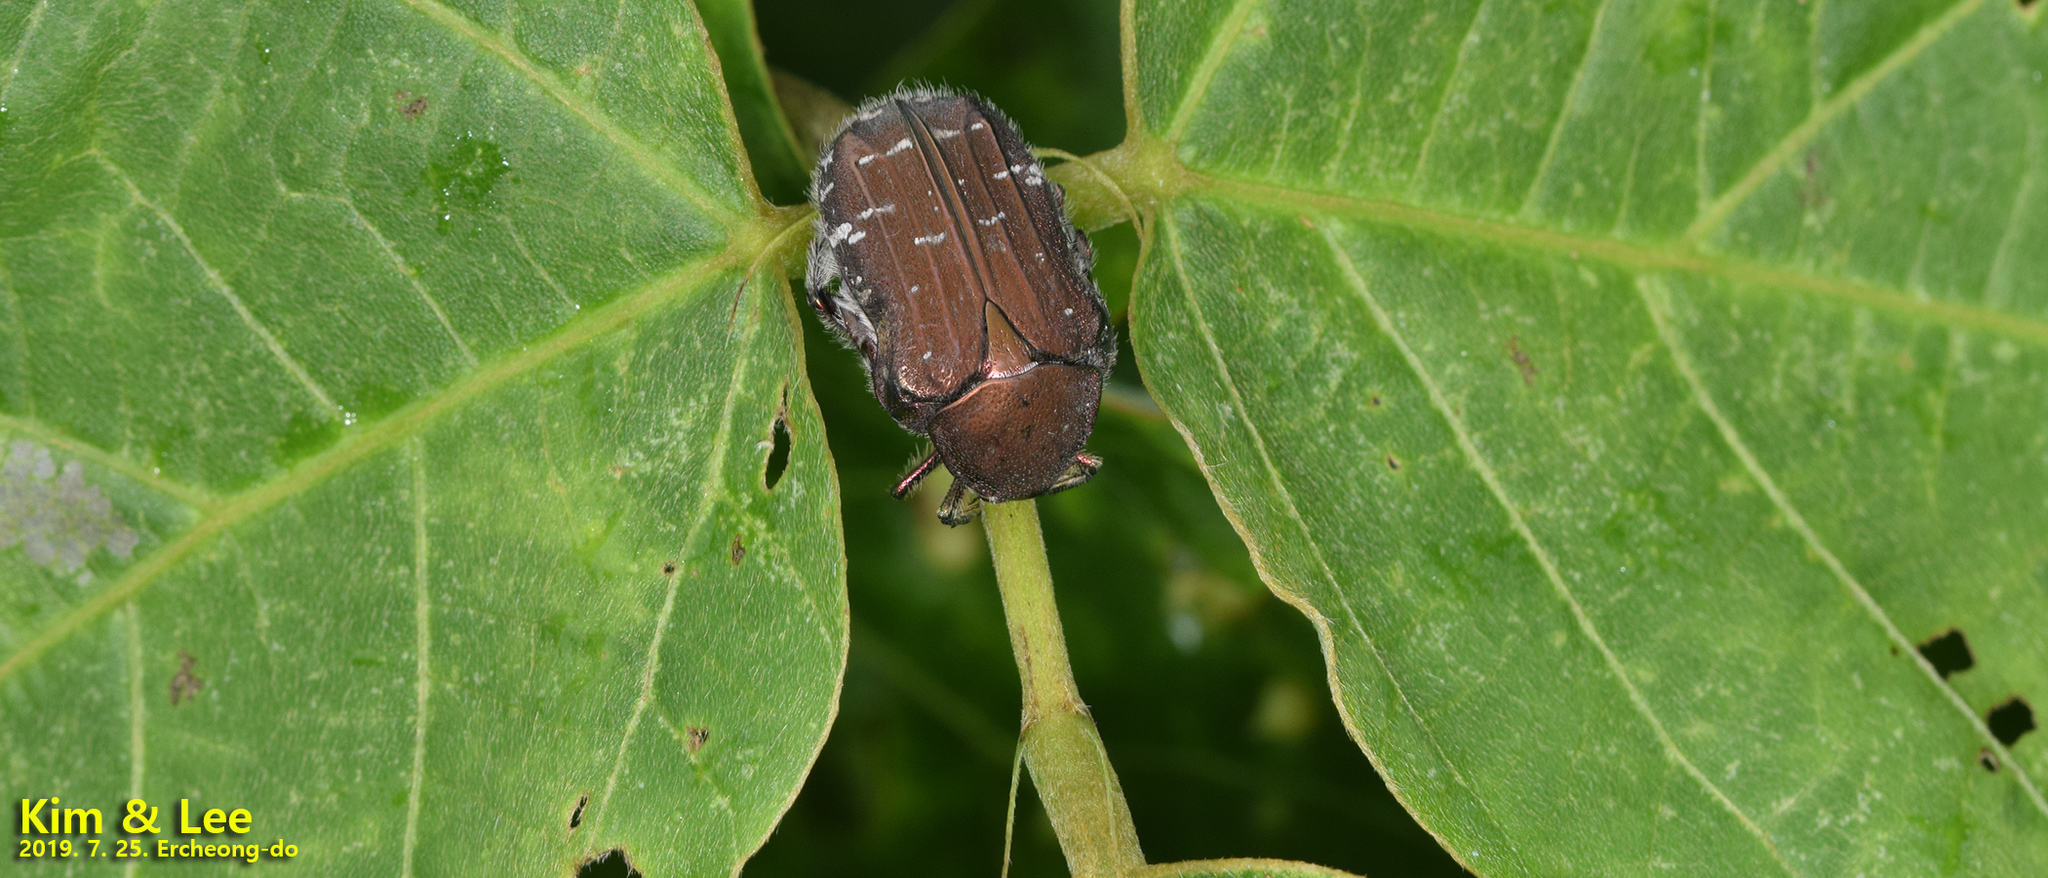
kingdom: Animalia
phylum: Arthropoda
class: Insecta
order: Coleoptera
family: Scarabaeidae
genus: Cetonia
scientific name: Cetonia pilifera
